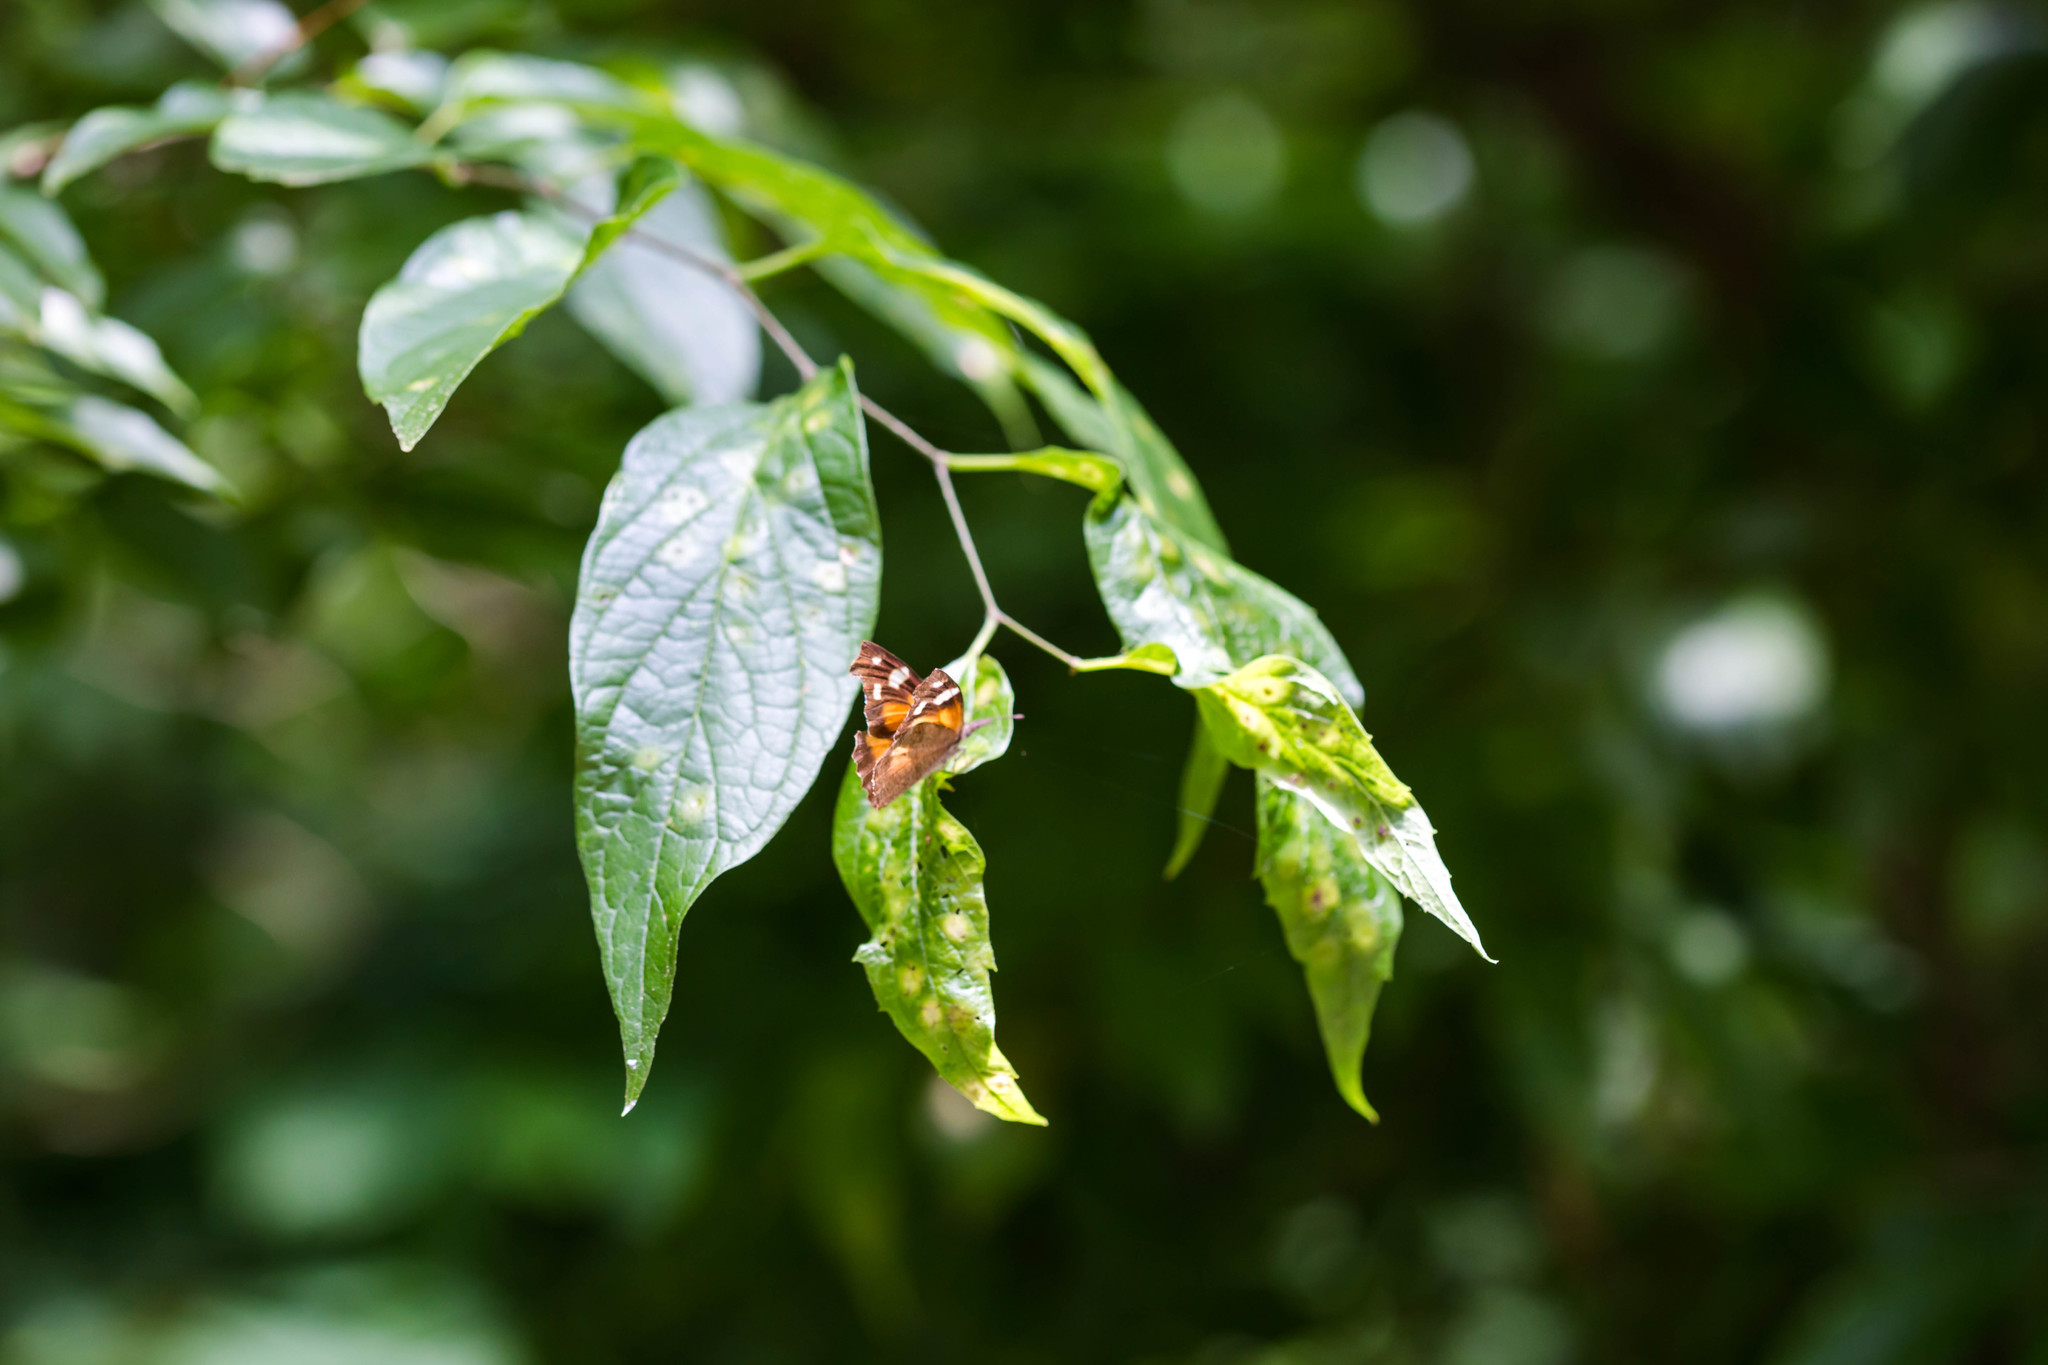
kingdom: Animalia
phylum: Arthropoda
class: Insecta
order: Lepidoptera
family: Nymphalidae
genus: Libytheana
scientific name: Libytheana carinenta
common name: American snout
